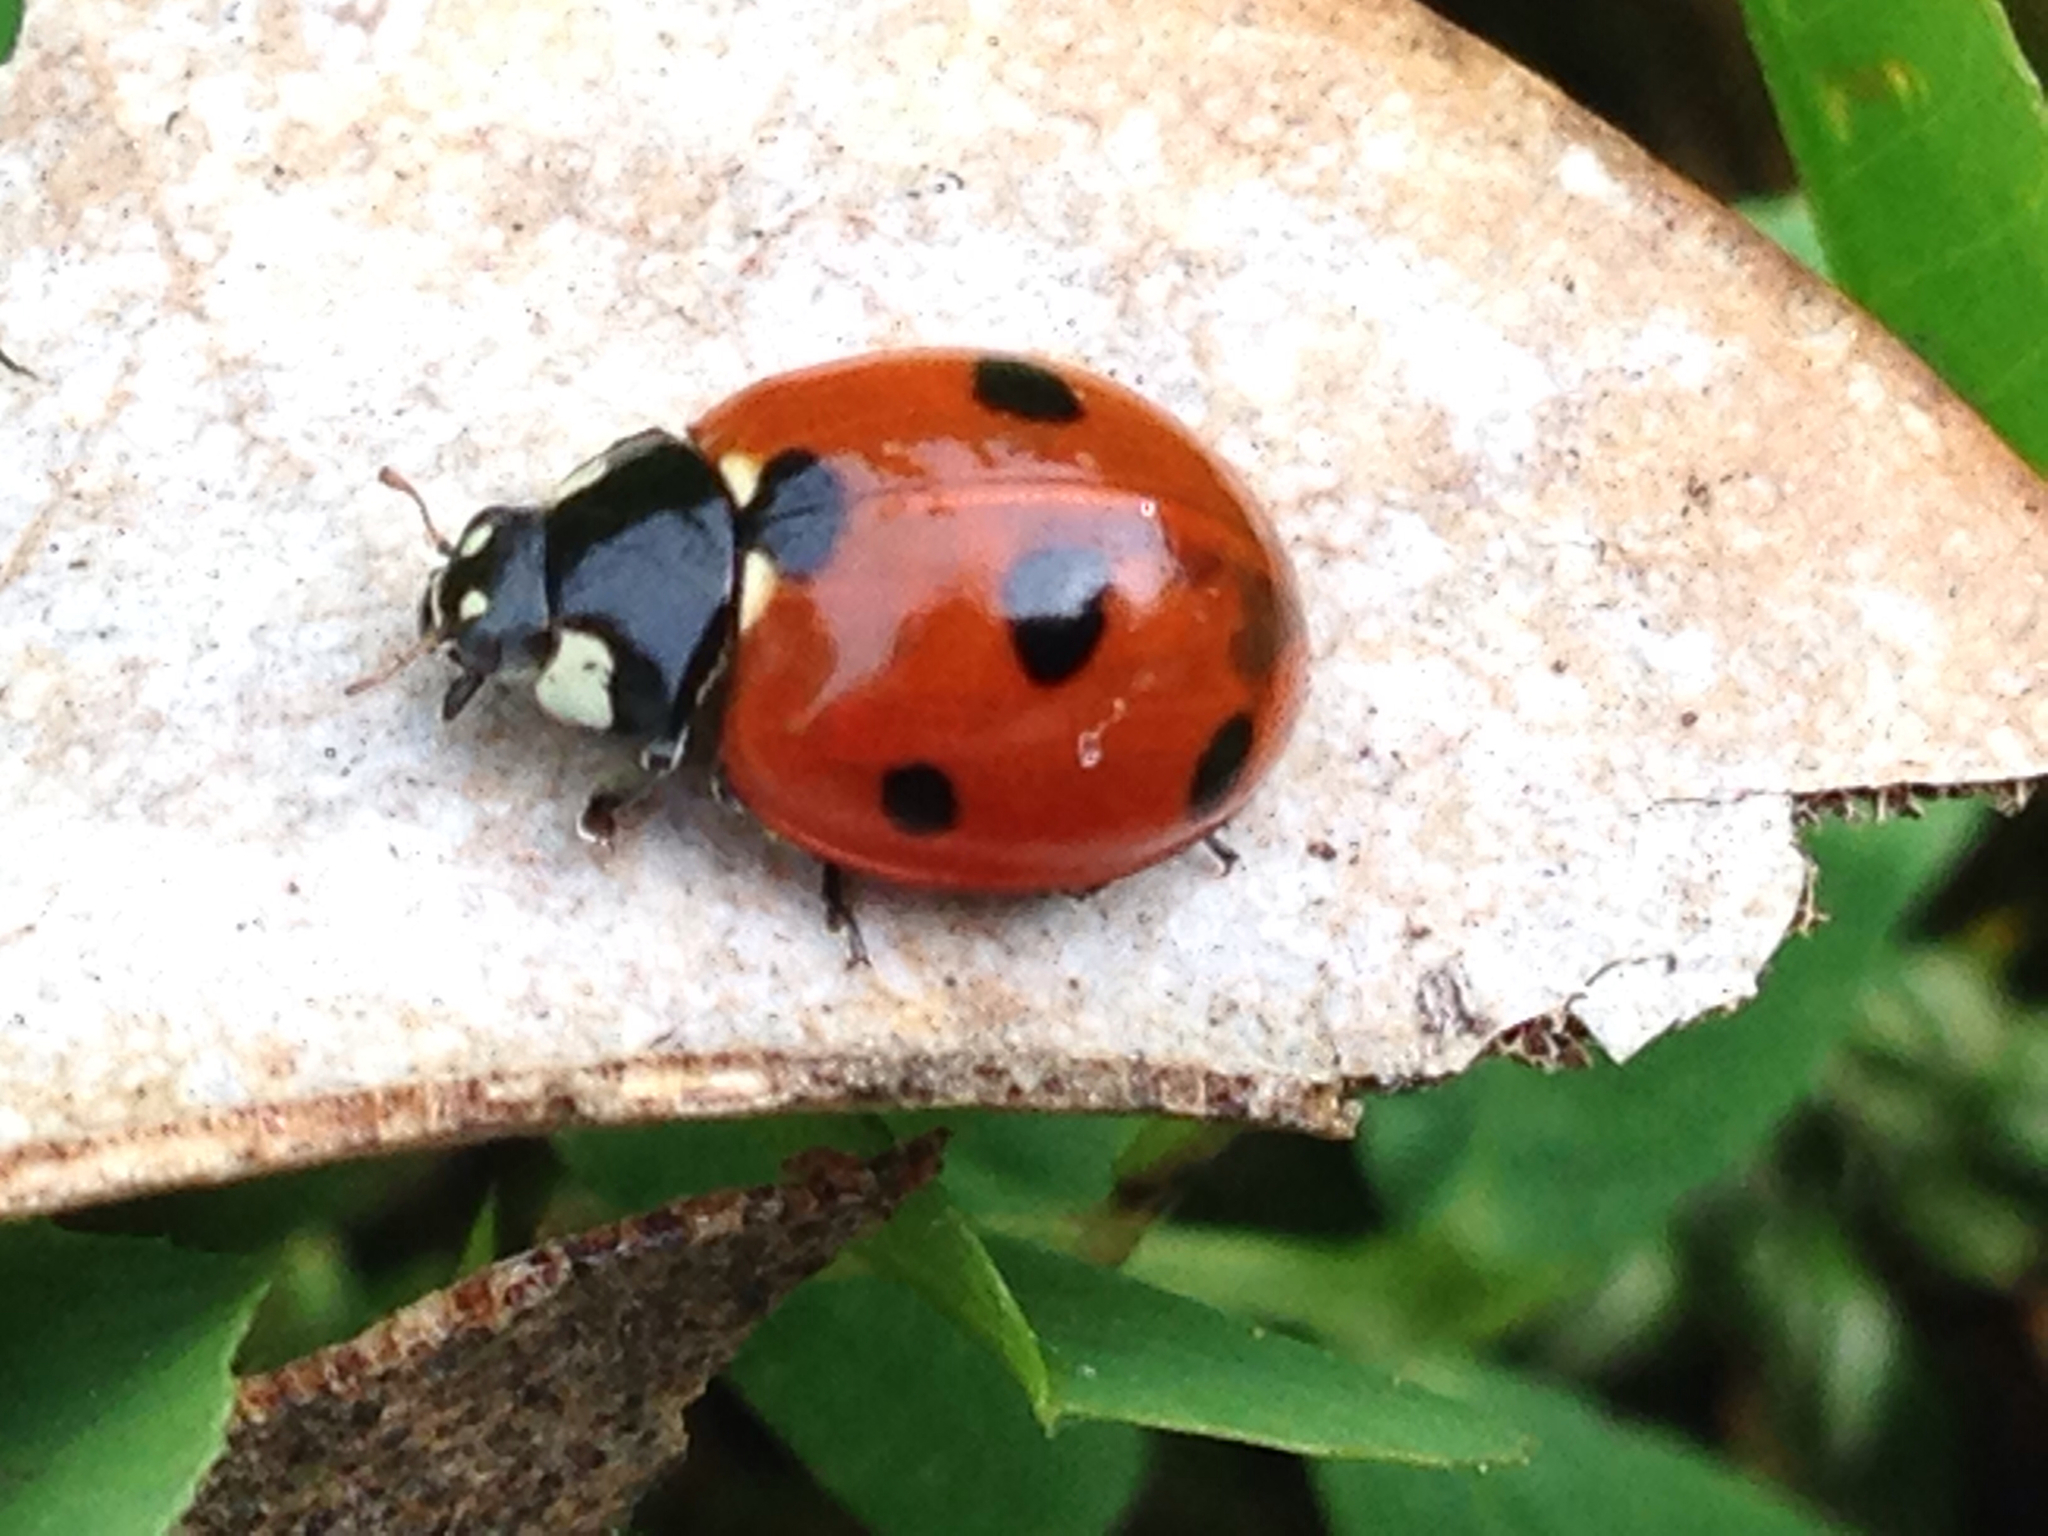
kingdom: Animalia
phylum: Arthropoda
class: Insecta
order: Coleoptera
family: Coccinellidae
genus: Coccinella
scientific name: Coccinella septempunctata
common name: Sevenspotted lady beetle
